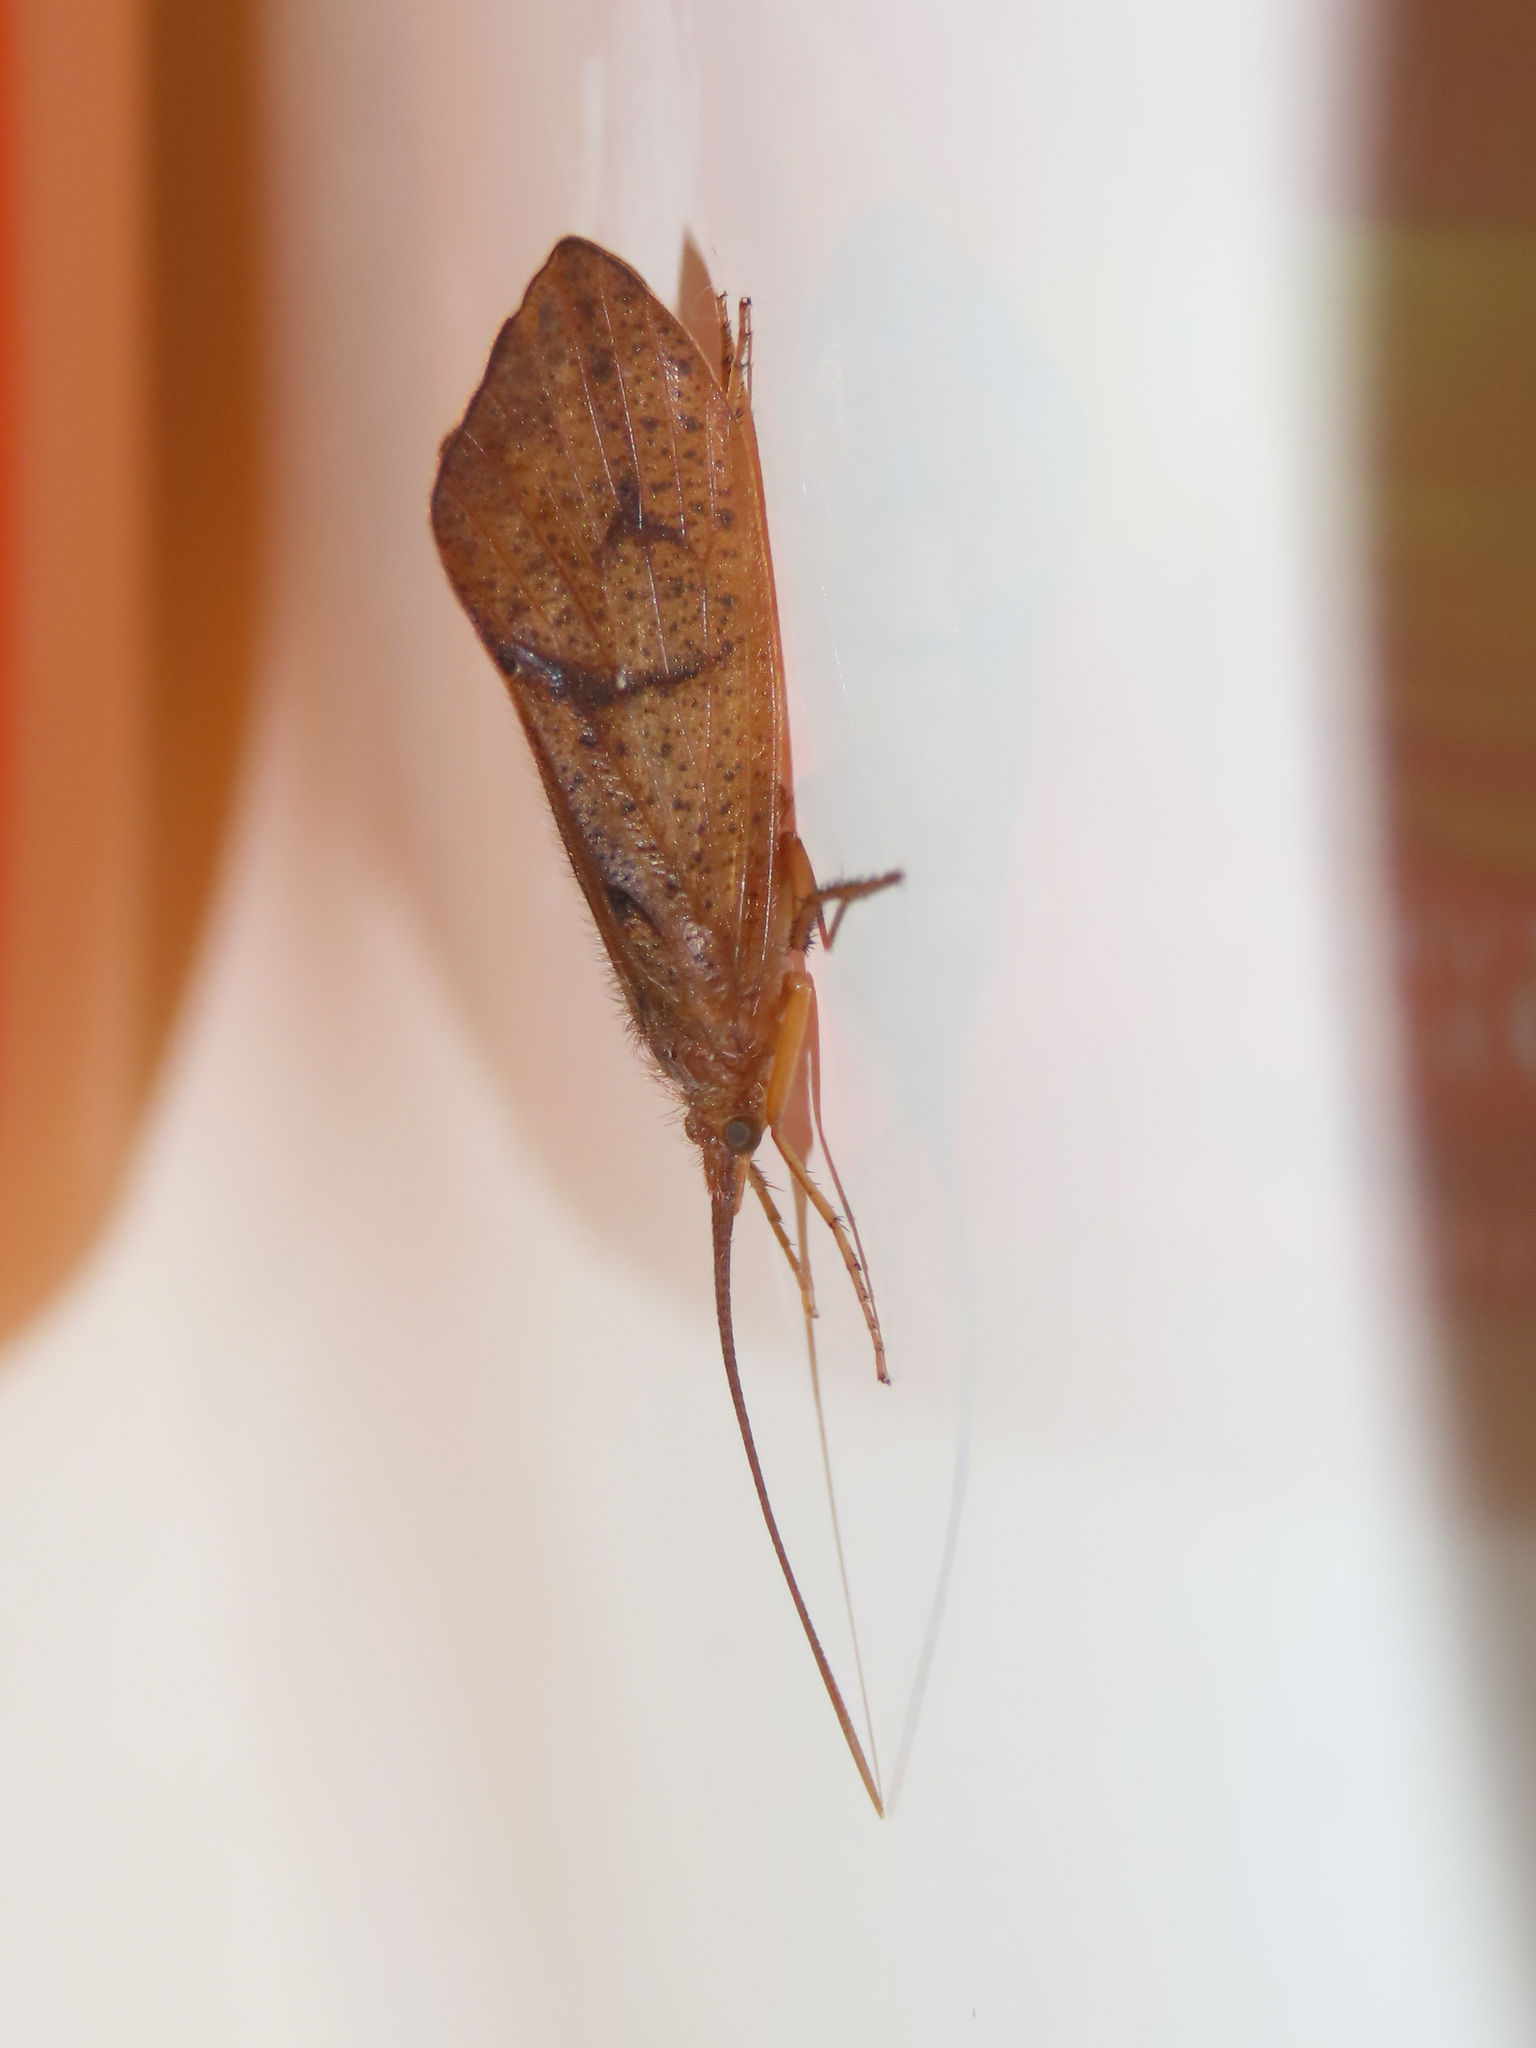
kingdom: Animalia
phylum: Arthropoda
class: Insecta
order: Trichoptera
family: Limnephilidae
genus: Pycnopsyche
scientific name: Pycnopsyche antica
